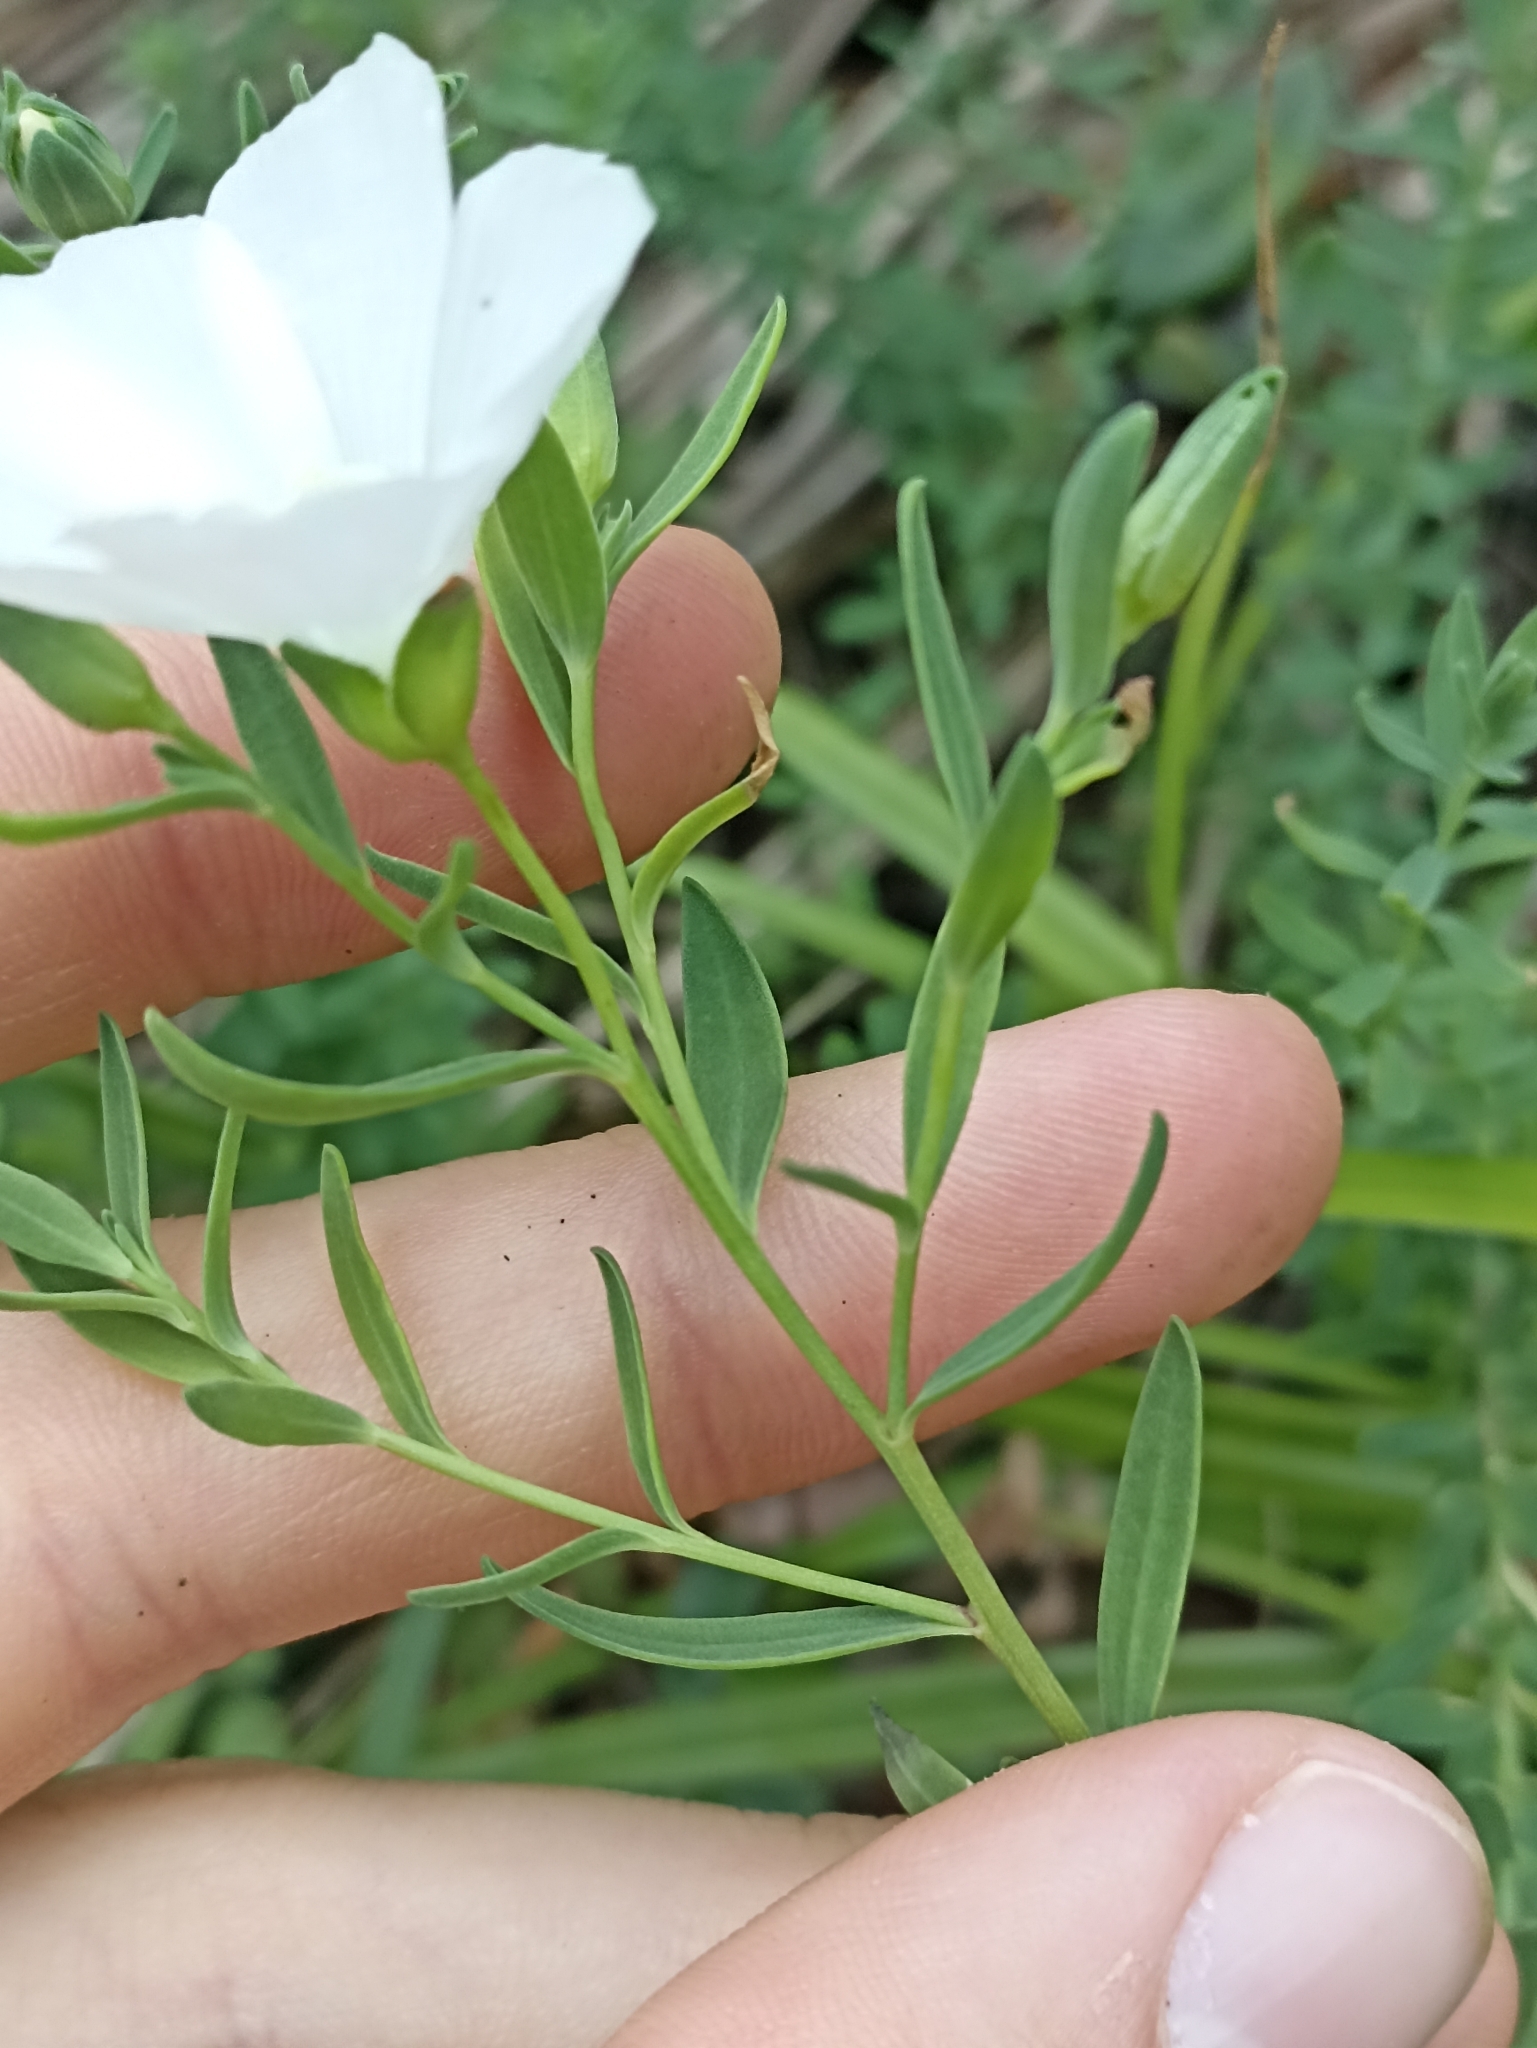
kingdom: Plantae
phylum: Tracheophyta
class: Magnoliopsida
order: Malpighiales
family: Linaceae
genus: Linum
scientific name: Linum monogynum
